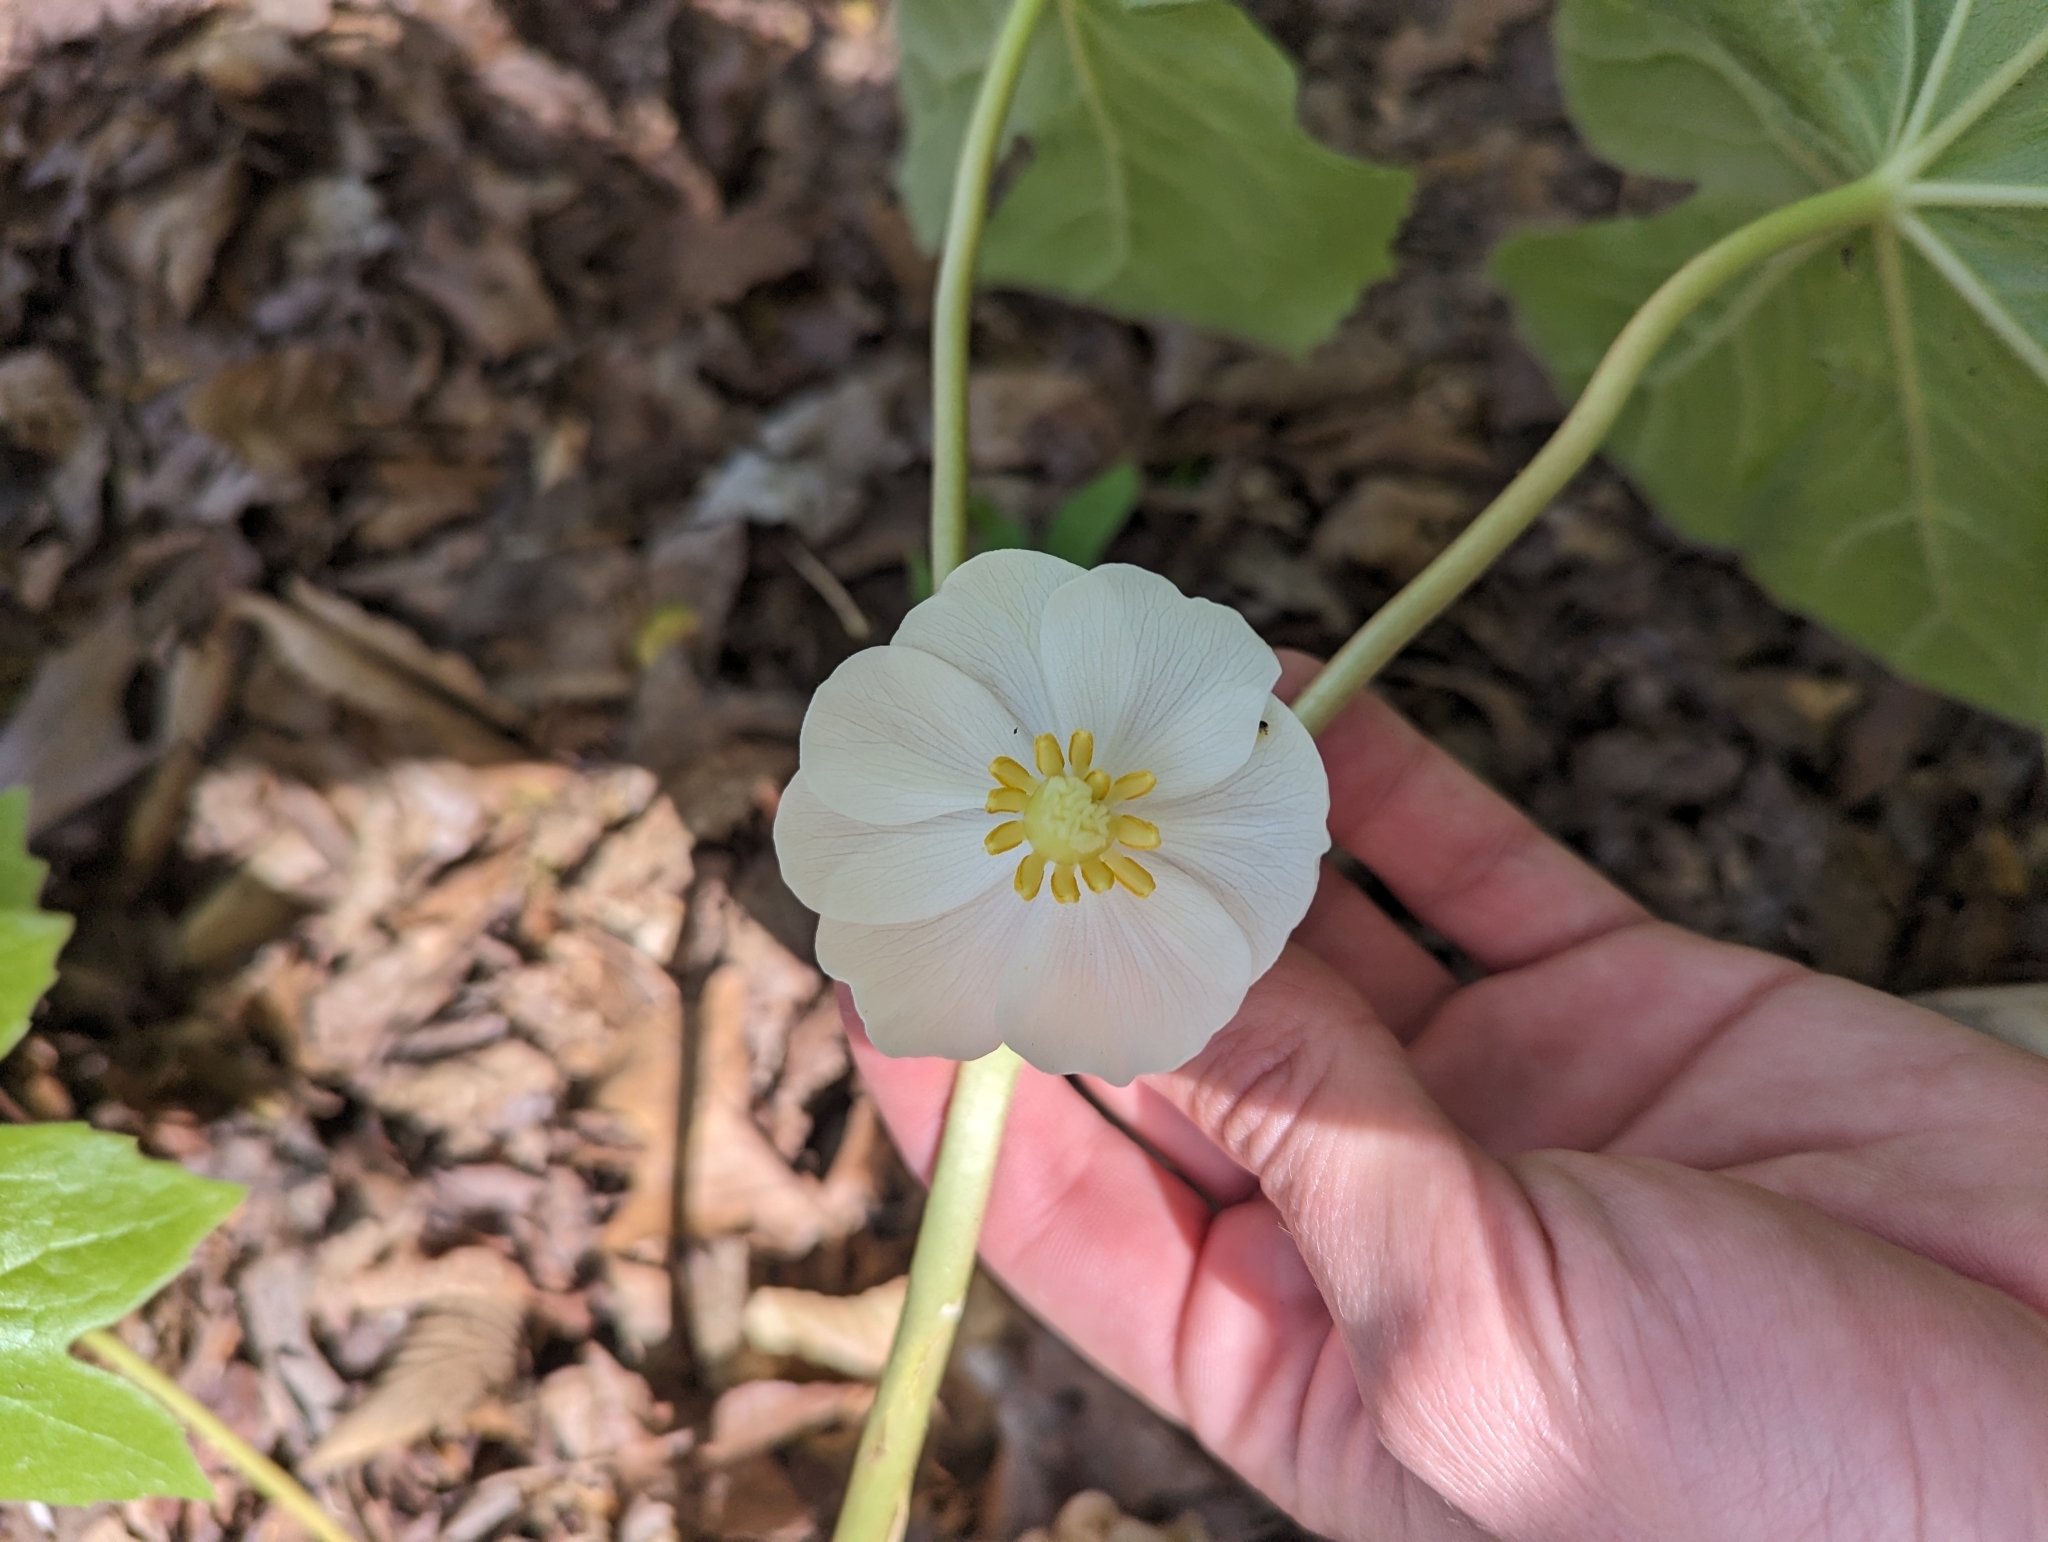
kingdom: Plantae
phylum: Tracheophyta
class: Magnoliopsida
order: Ranunculales
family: Berberidaceae
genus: Podophyllum
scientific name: Podophyllum peltatum
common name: Wild mandrake
